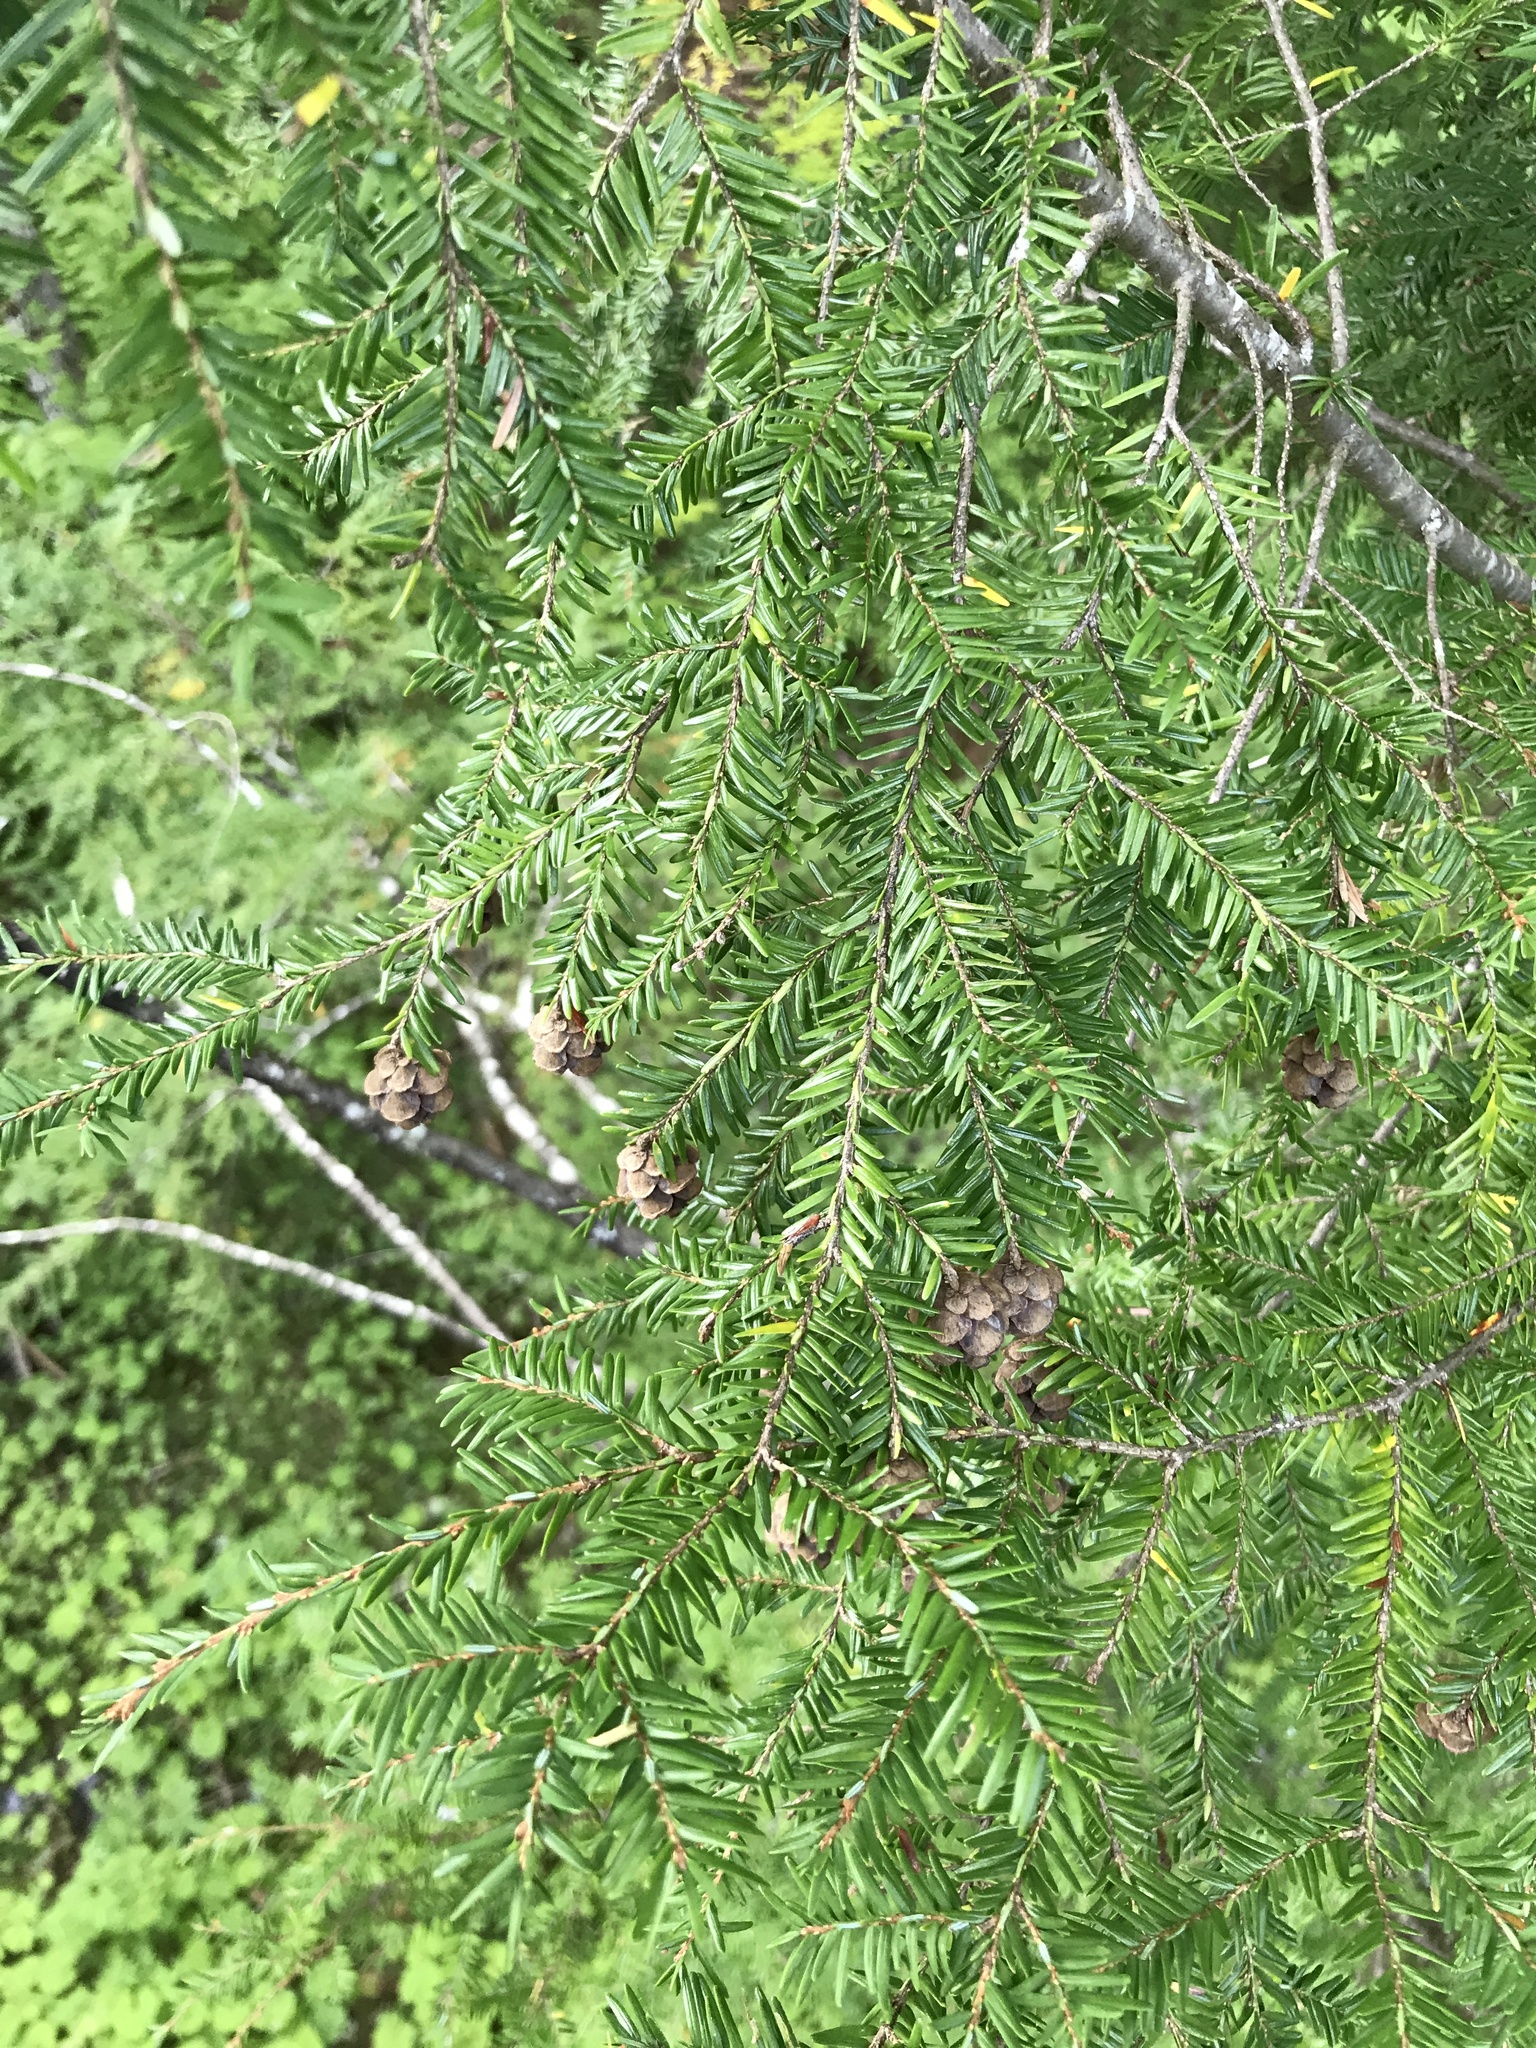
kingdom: Plantae
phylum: Tracheophyta
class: Pinopsida
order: Pinales
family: Pinaceae
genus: Tsuga
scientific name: Tsuga canadensis
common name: Eastern hemlock
